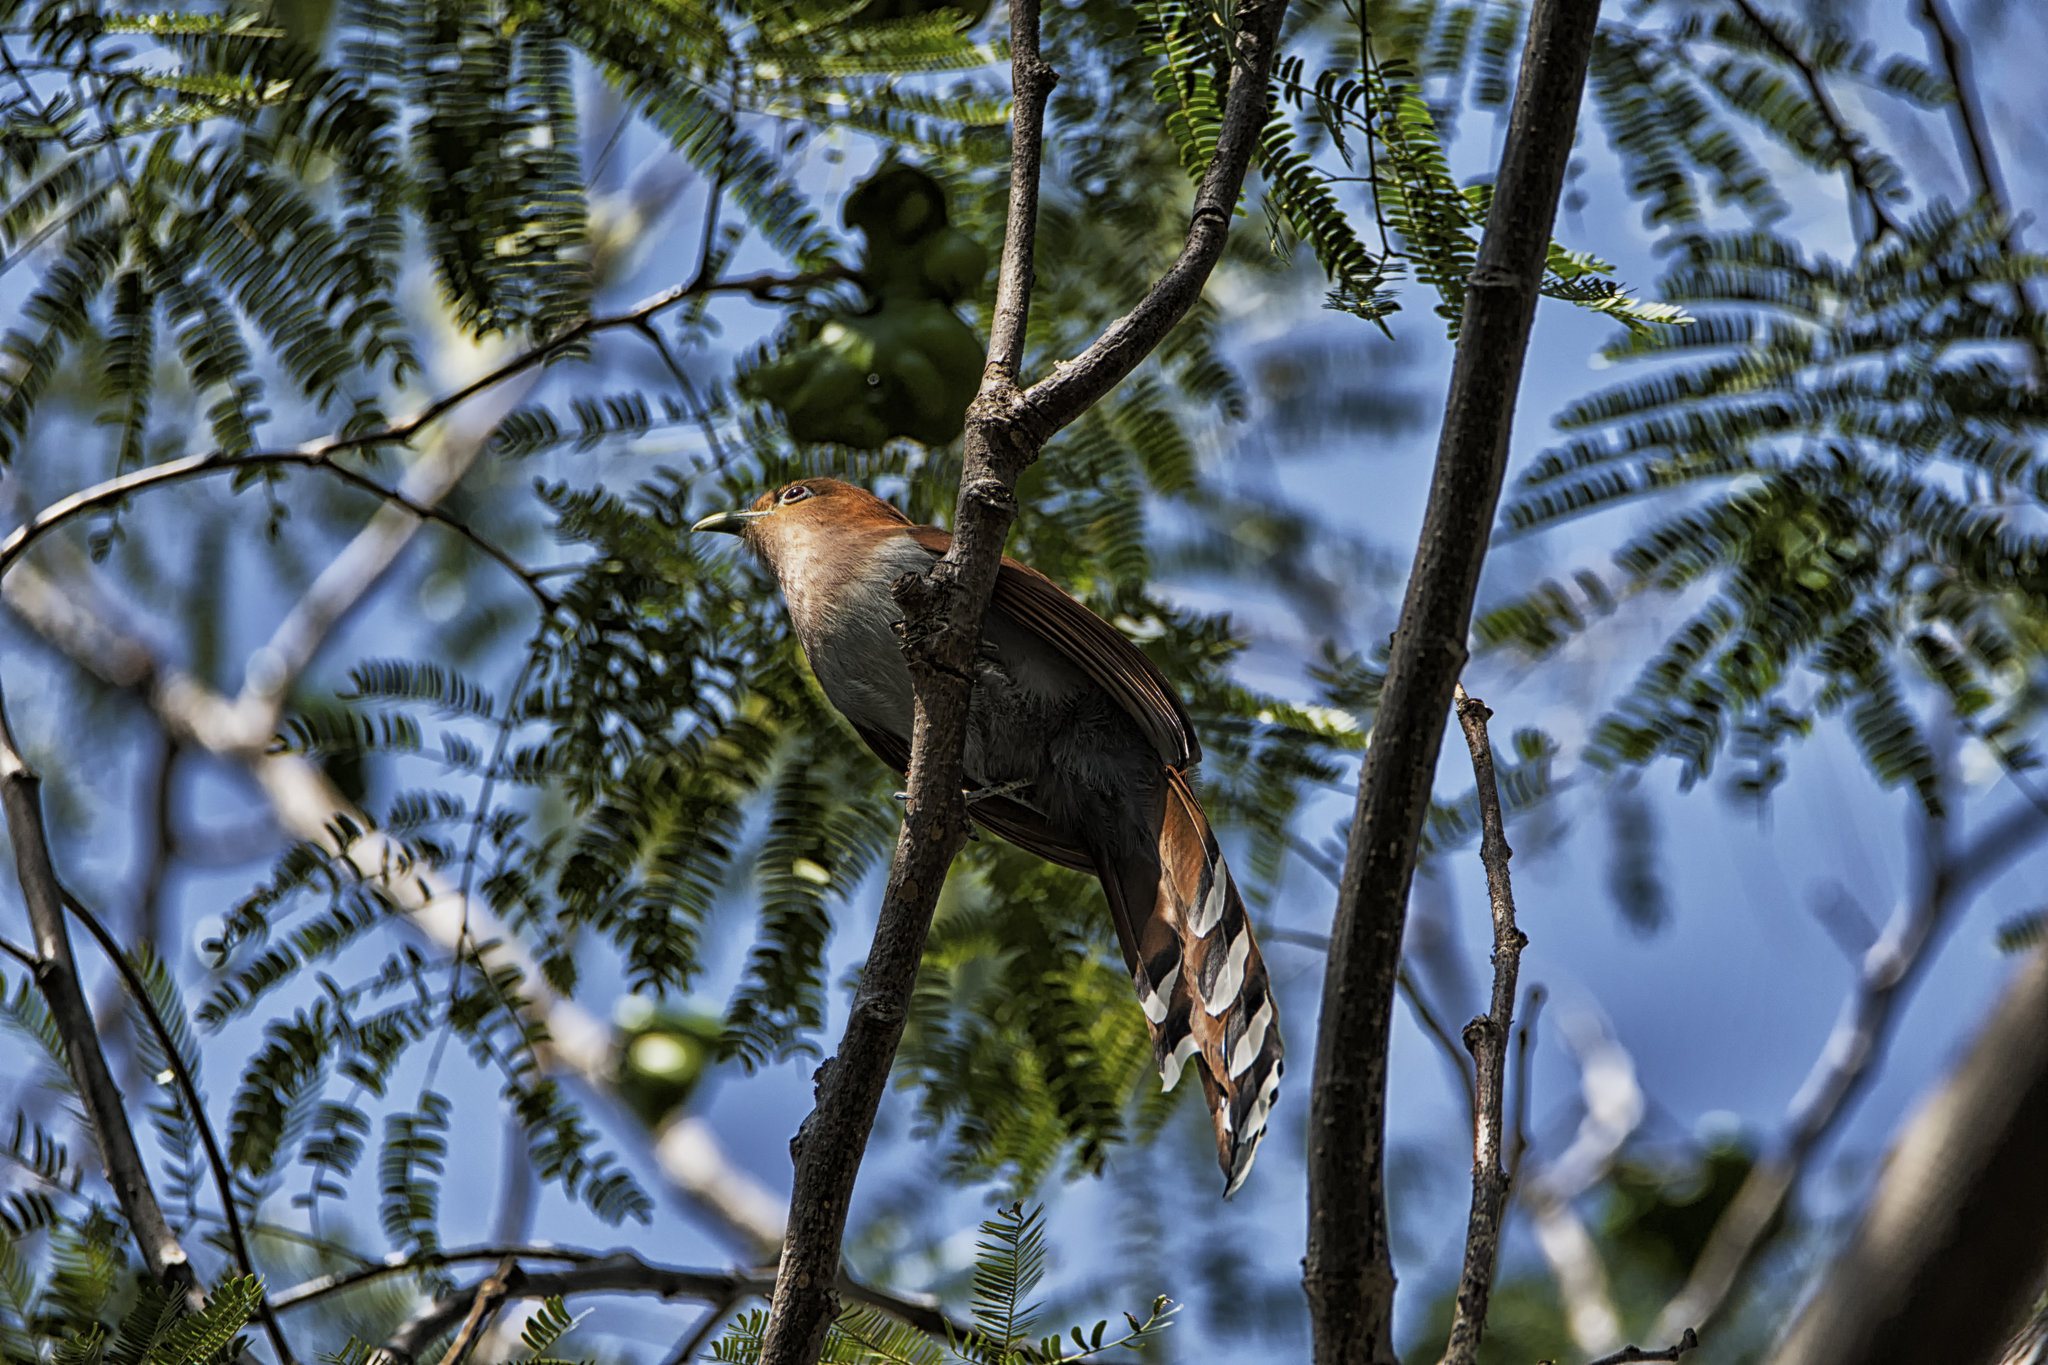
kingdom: Animalia
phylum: Chordata
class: Aves
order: Cuculiformes
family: Cuculidae
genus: Piaya
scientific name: Piaya cayana
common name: Squirrel cuckoo
